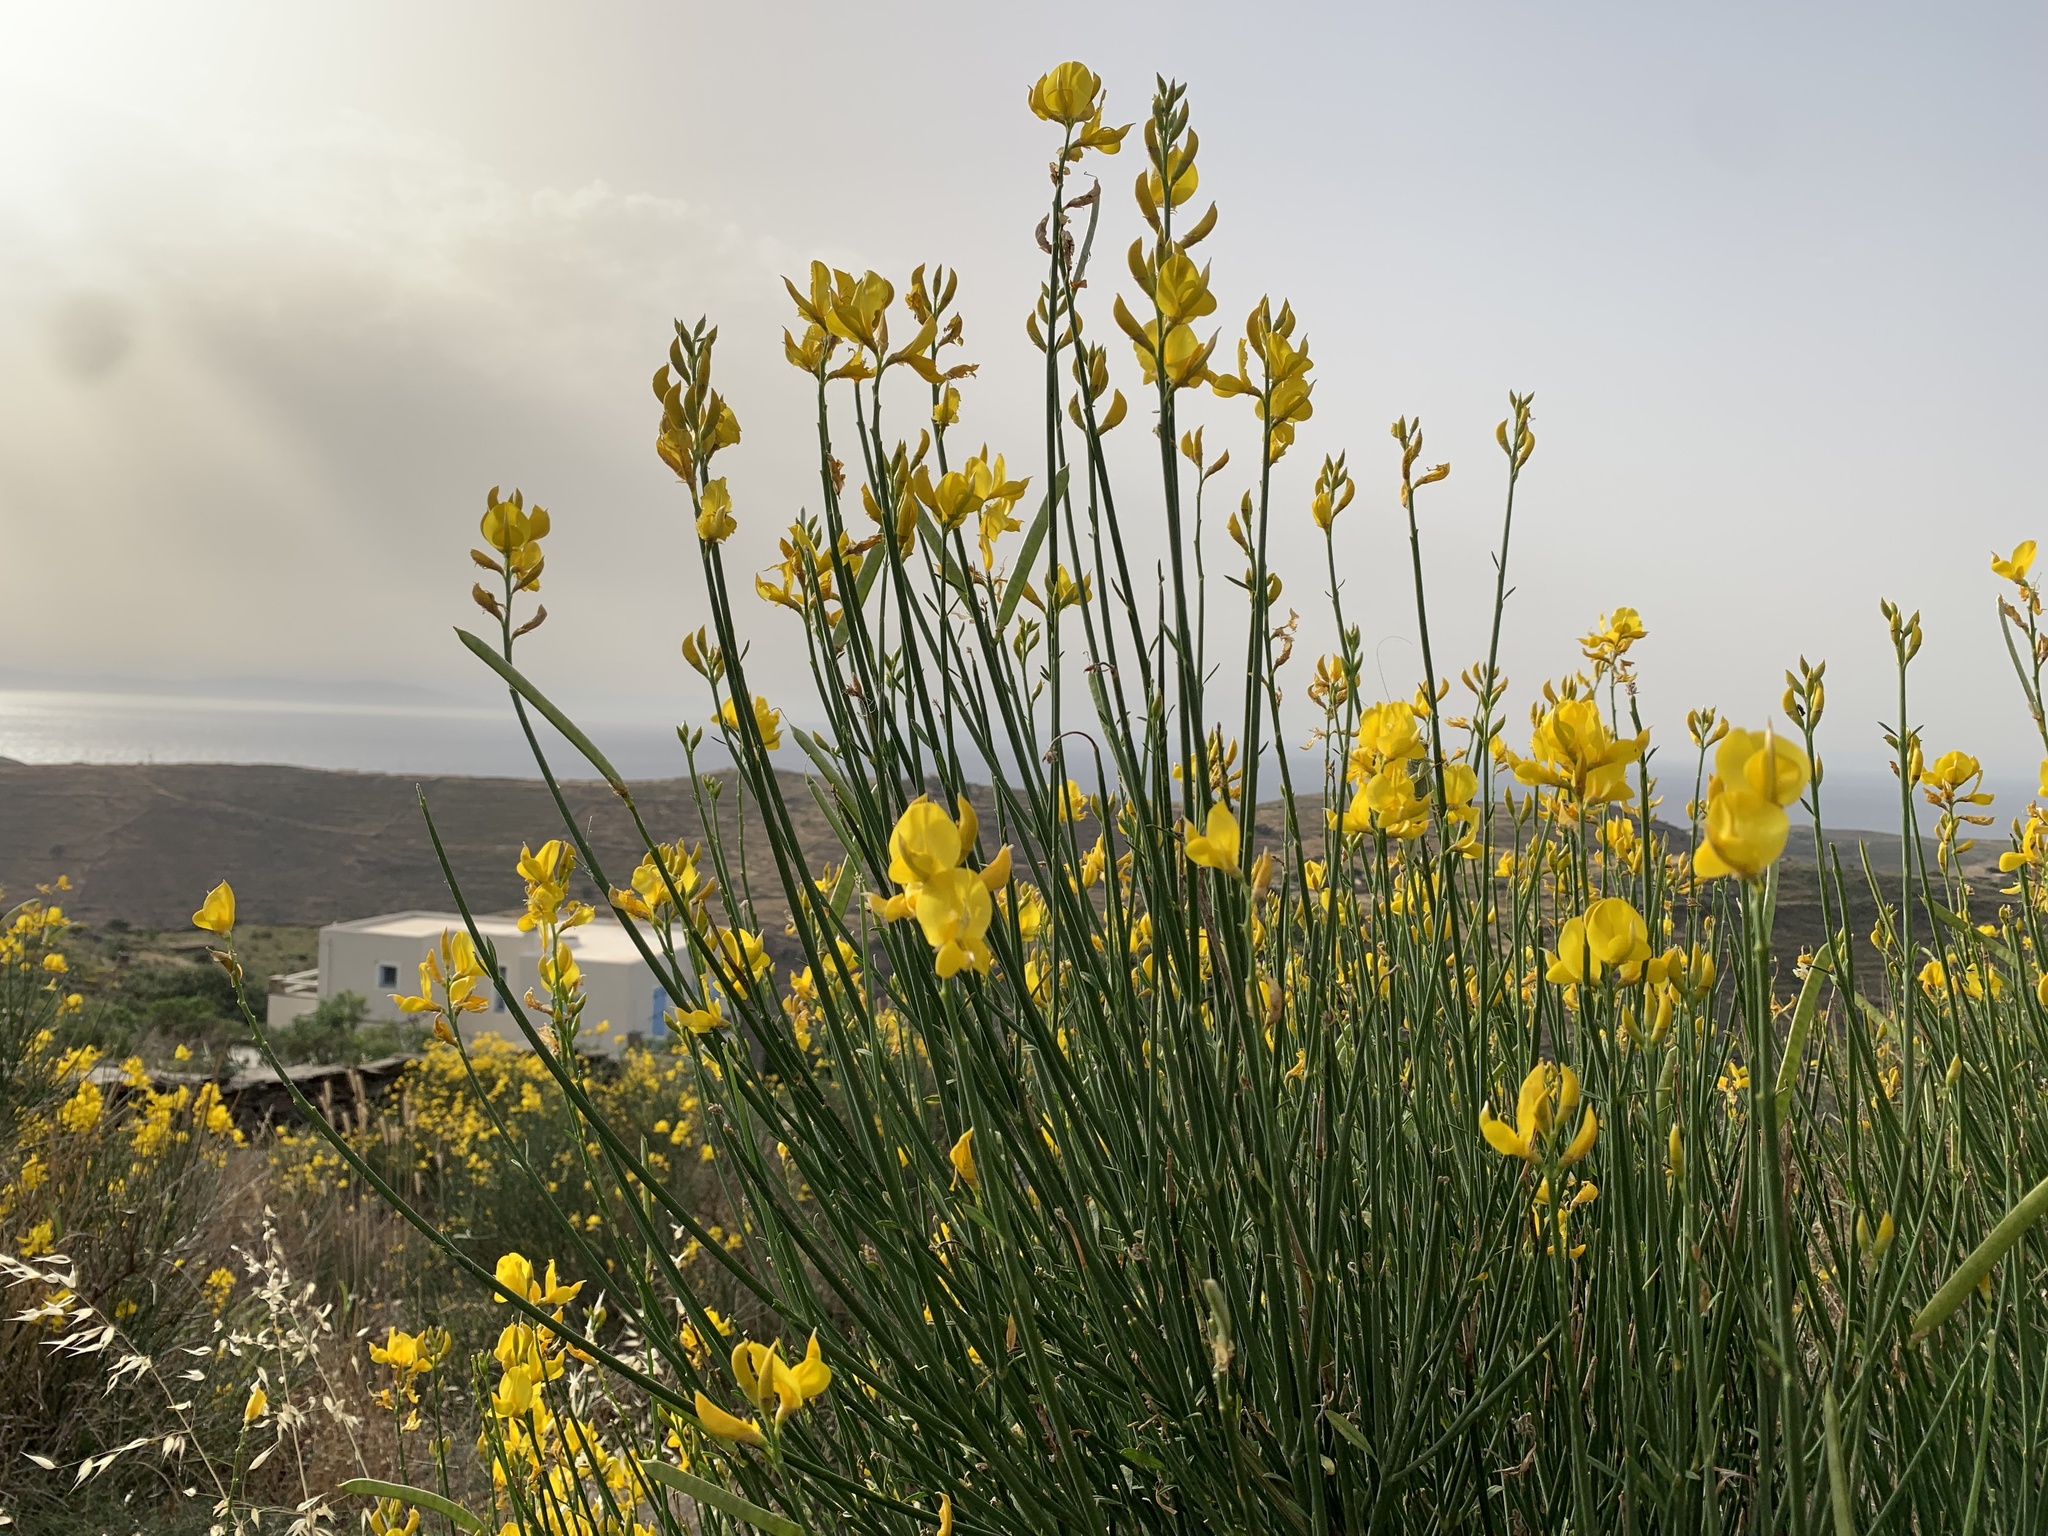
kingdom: Plantae
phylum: Tracheophyta
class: Magnoliopsida
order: Fabales
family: Fabaceae
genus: Spartium
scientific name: Spartium junceum
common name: Spanish broom
